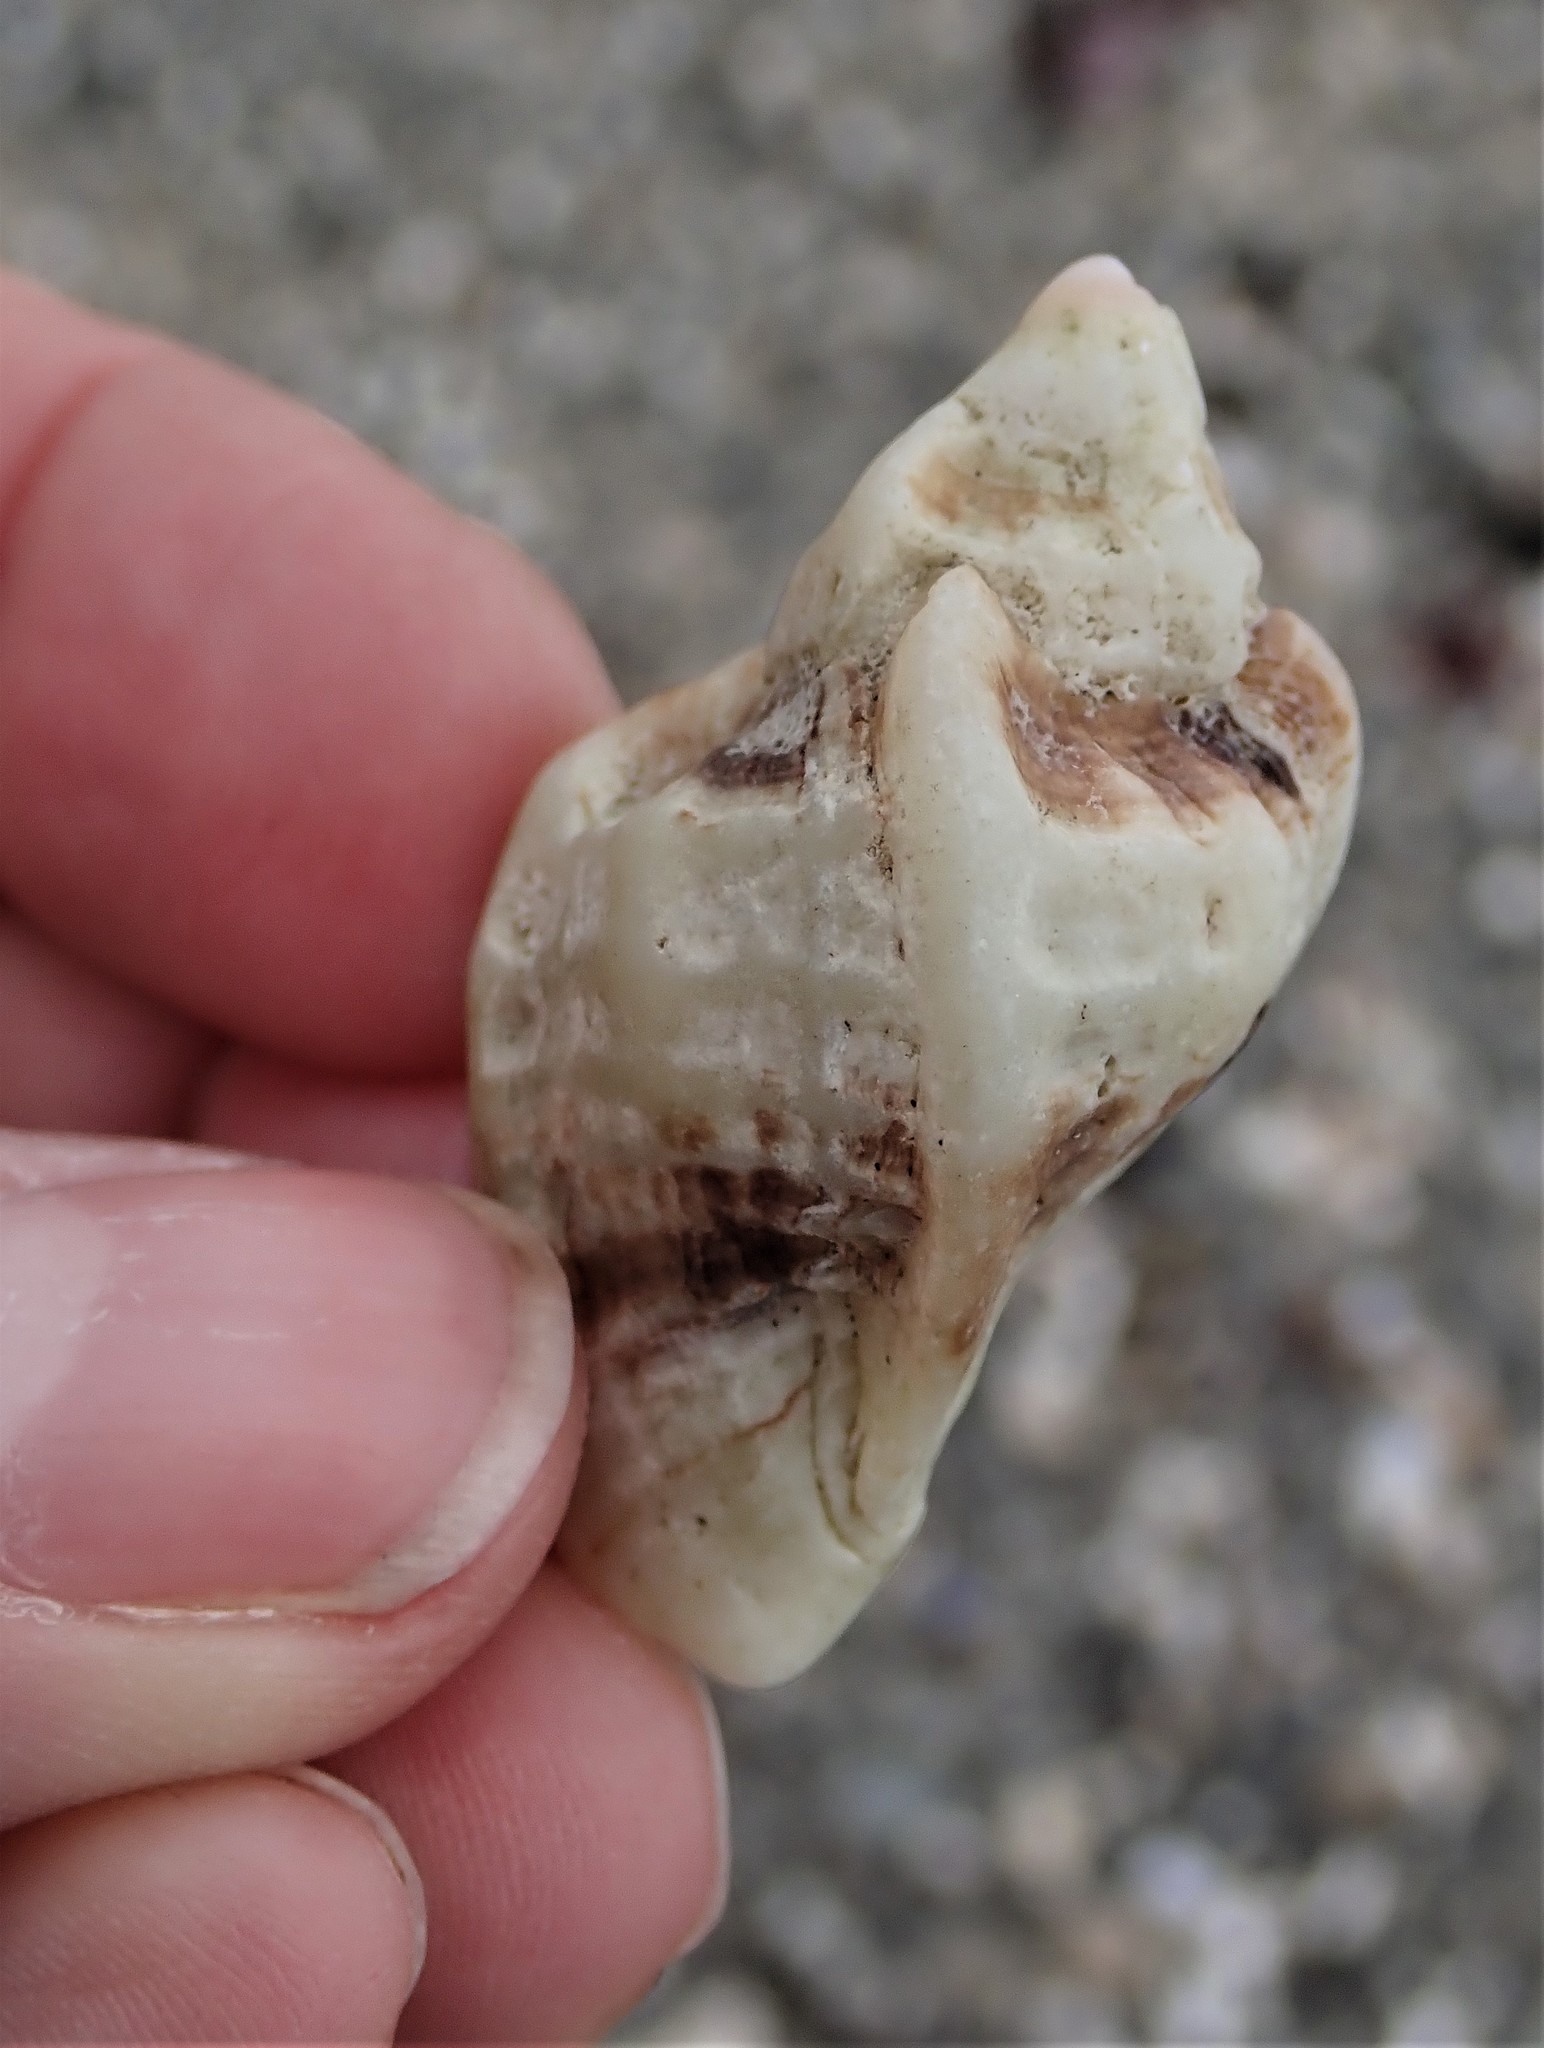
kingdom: Animalia
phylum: Mollusca
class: Gastropoda
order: Neogastropoda
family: Muricidae
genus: Ceratostoma
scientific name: Ceratostoma foliatum
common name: Foliate thorn purpura
